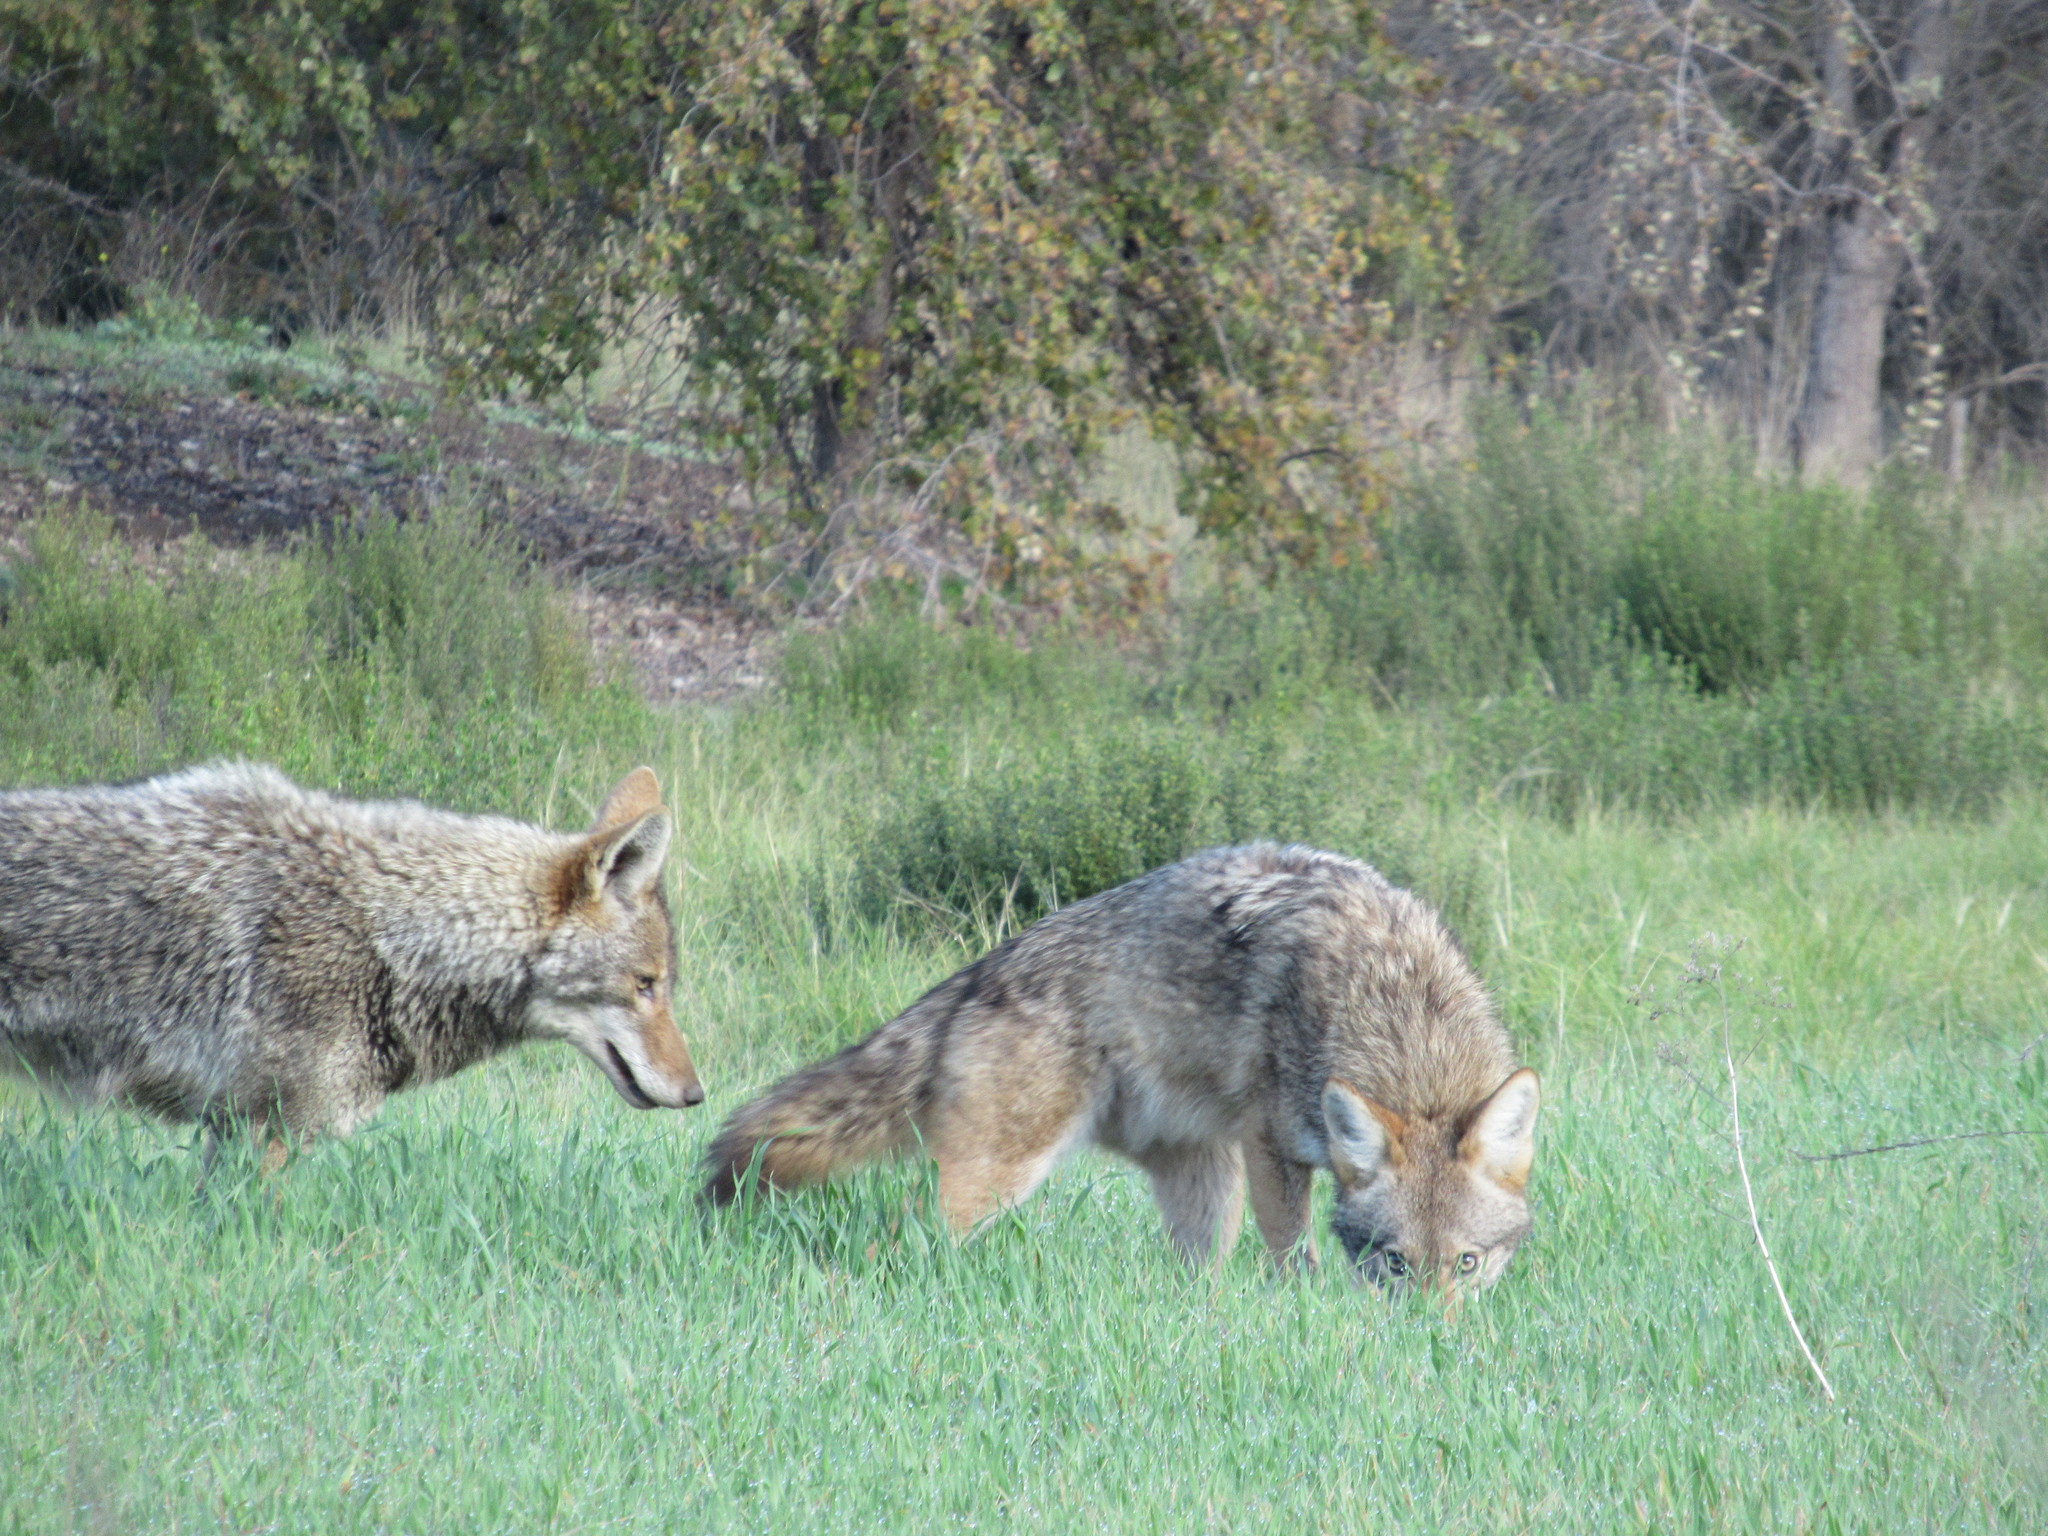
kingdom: Animalia
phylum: Chordata
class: Mammalia
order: Carnivora
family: Canidae
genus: Canis
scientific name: Canis latrans
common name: Coyote
